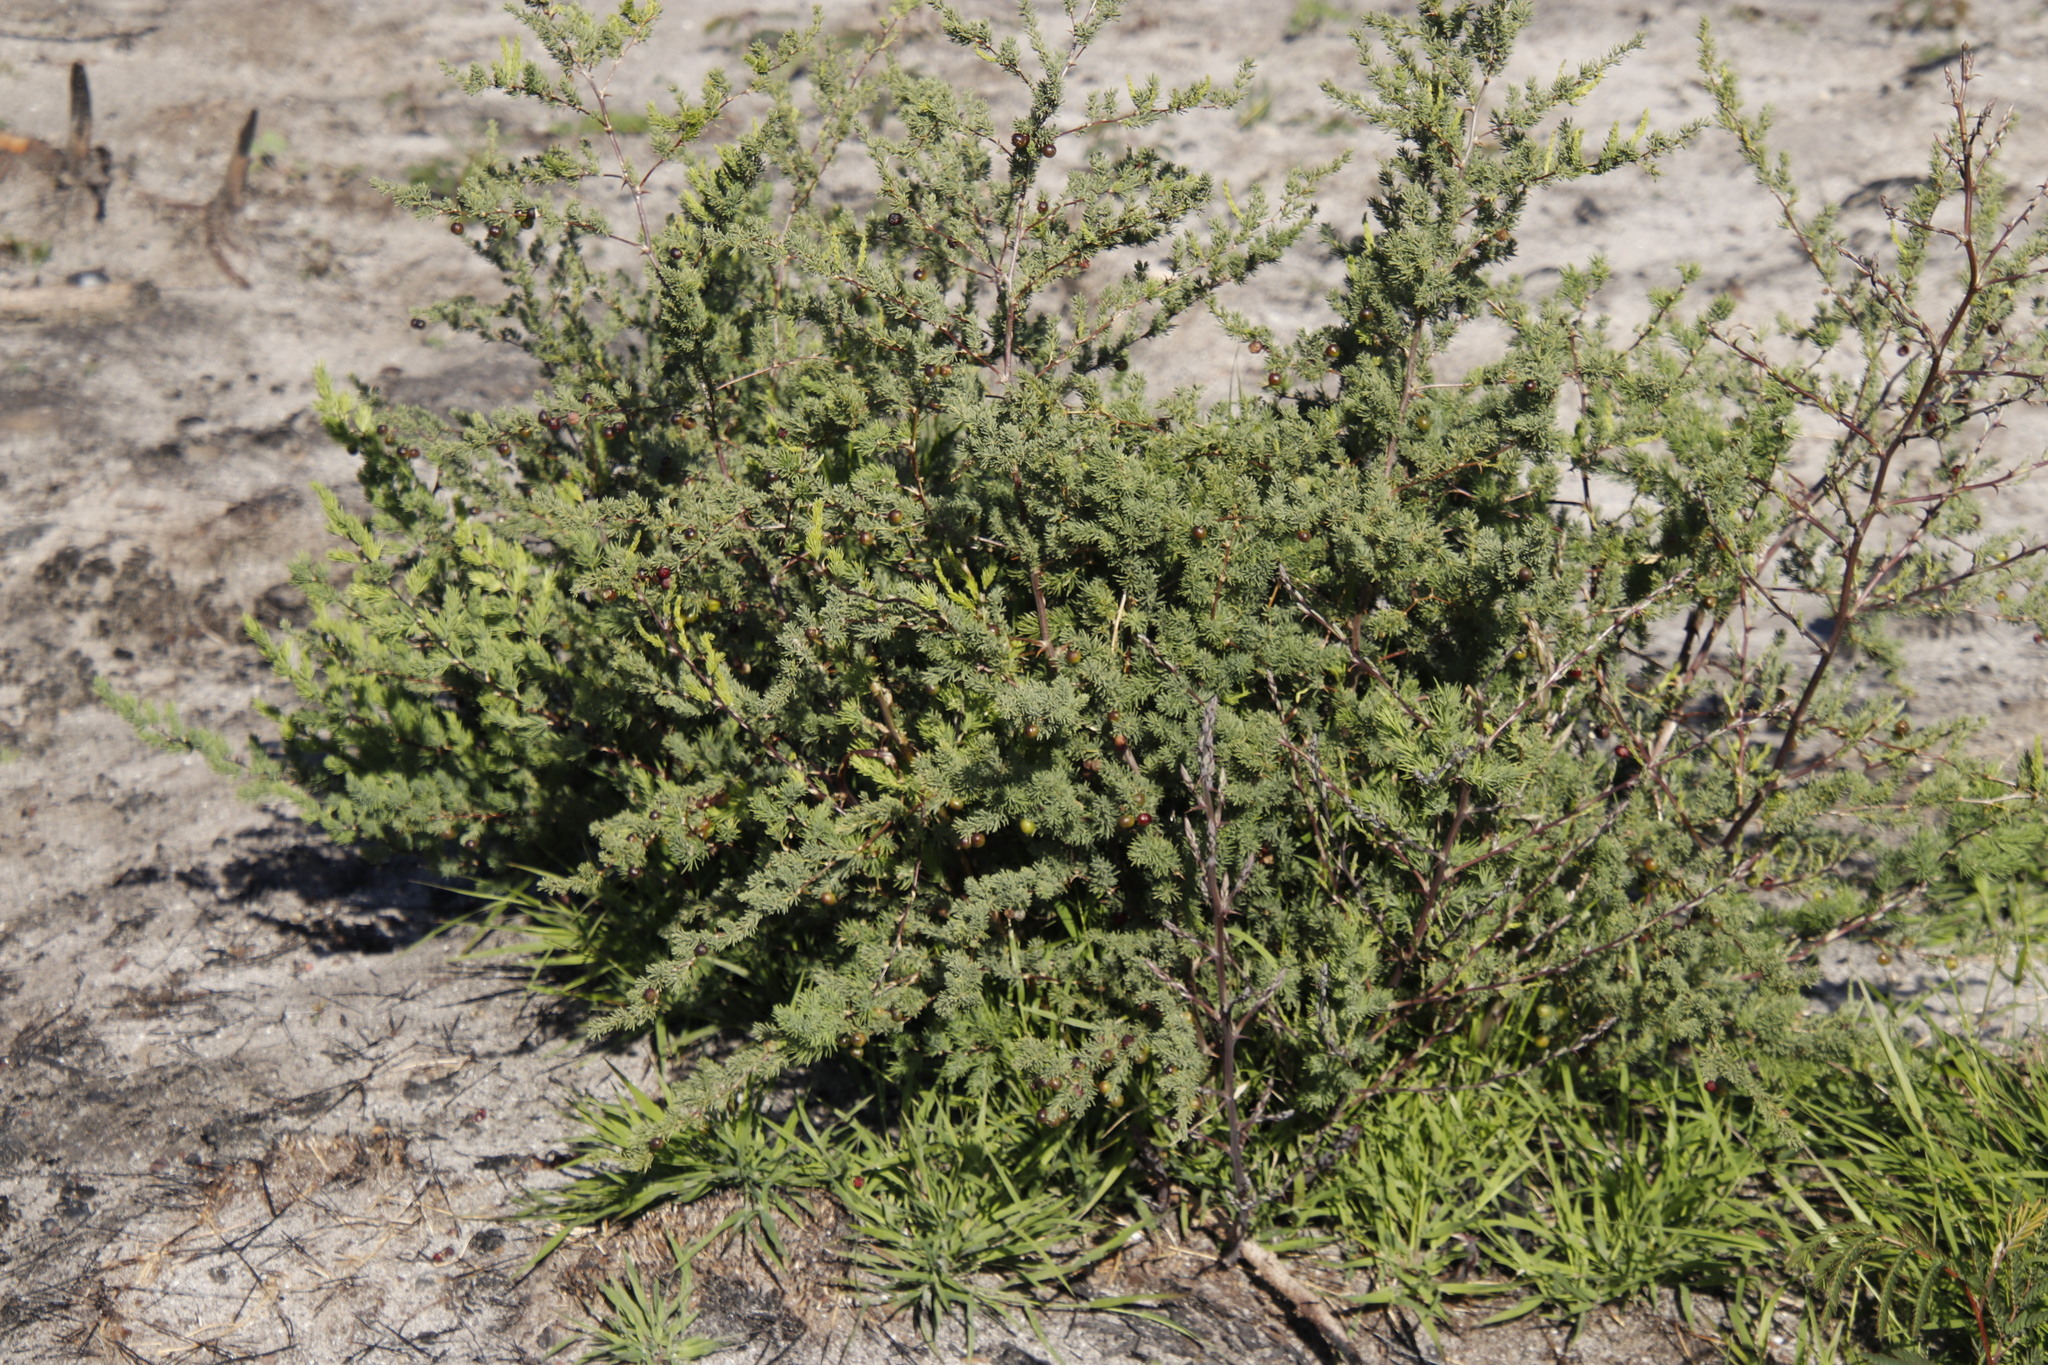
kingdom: Plantae
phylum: Tracheophyta
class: Liliopsida
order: Asparagales
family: Asparagaceae
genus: Asparagus
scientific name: Asparagus rubicundus
